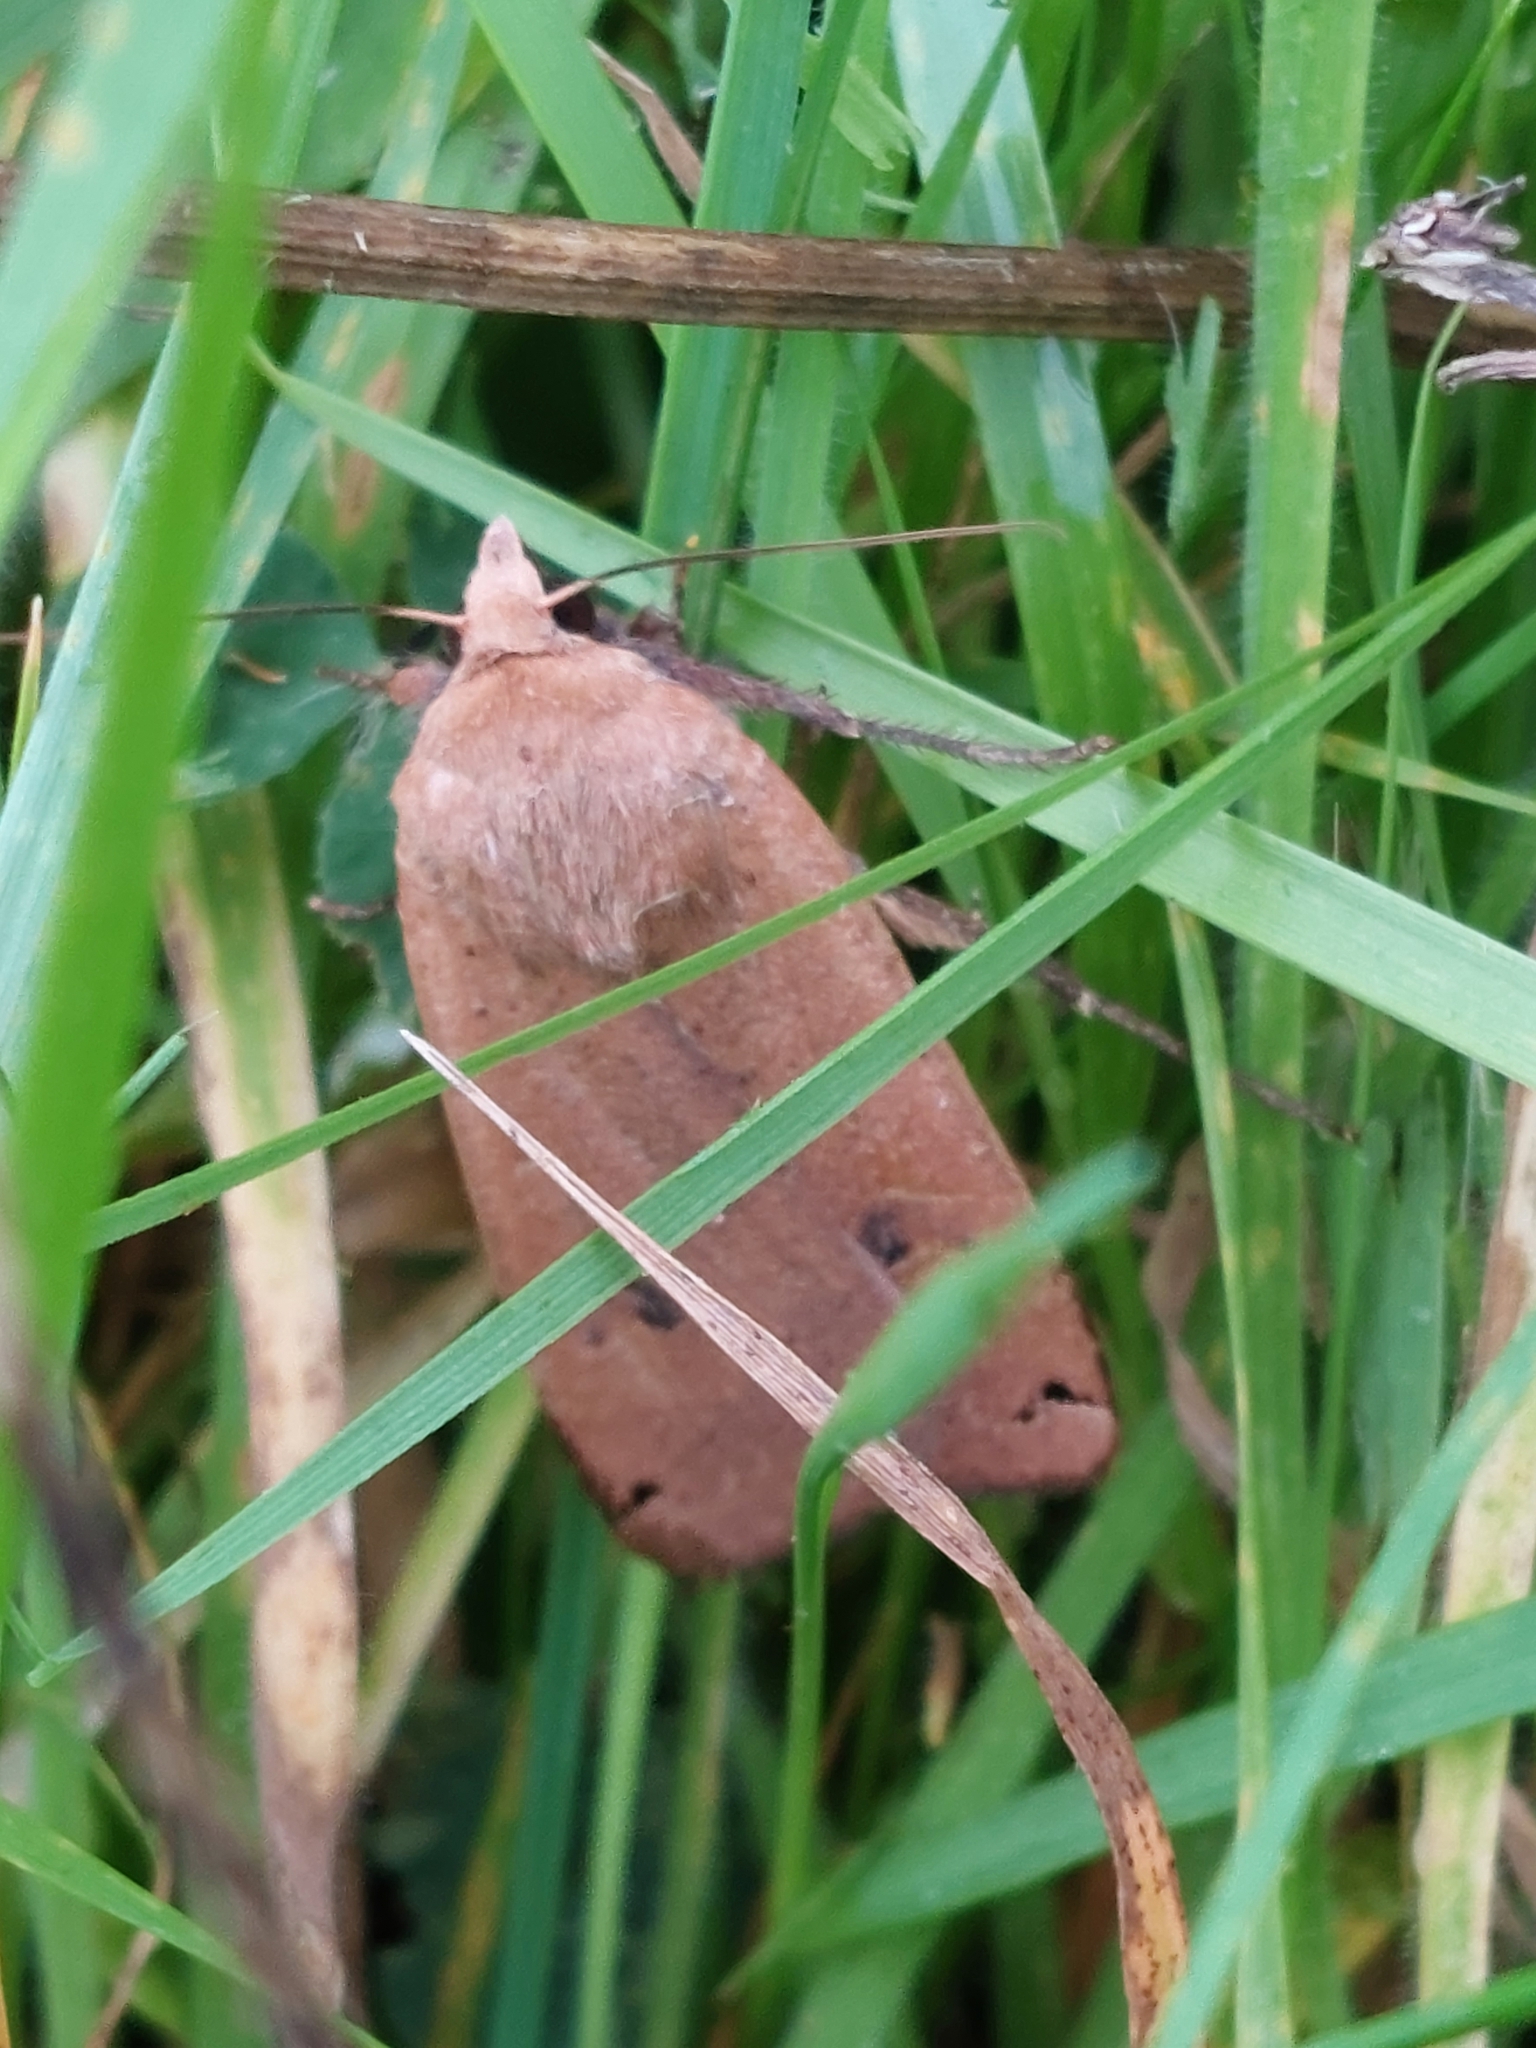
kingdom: Animalia
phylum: Arthropoda
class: Insecta
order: Lepidoptera
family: Noctuidae
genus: Noctua
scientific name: Noctua pronuba
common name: Large yellow underwing
